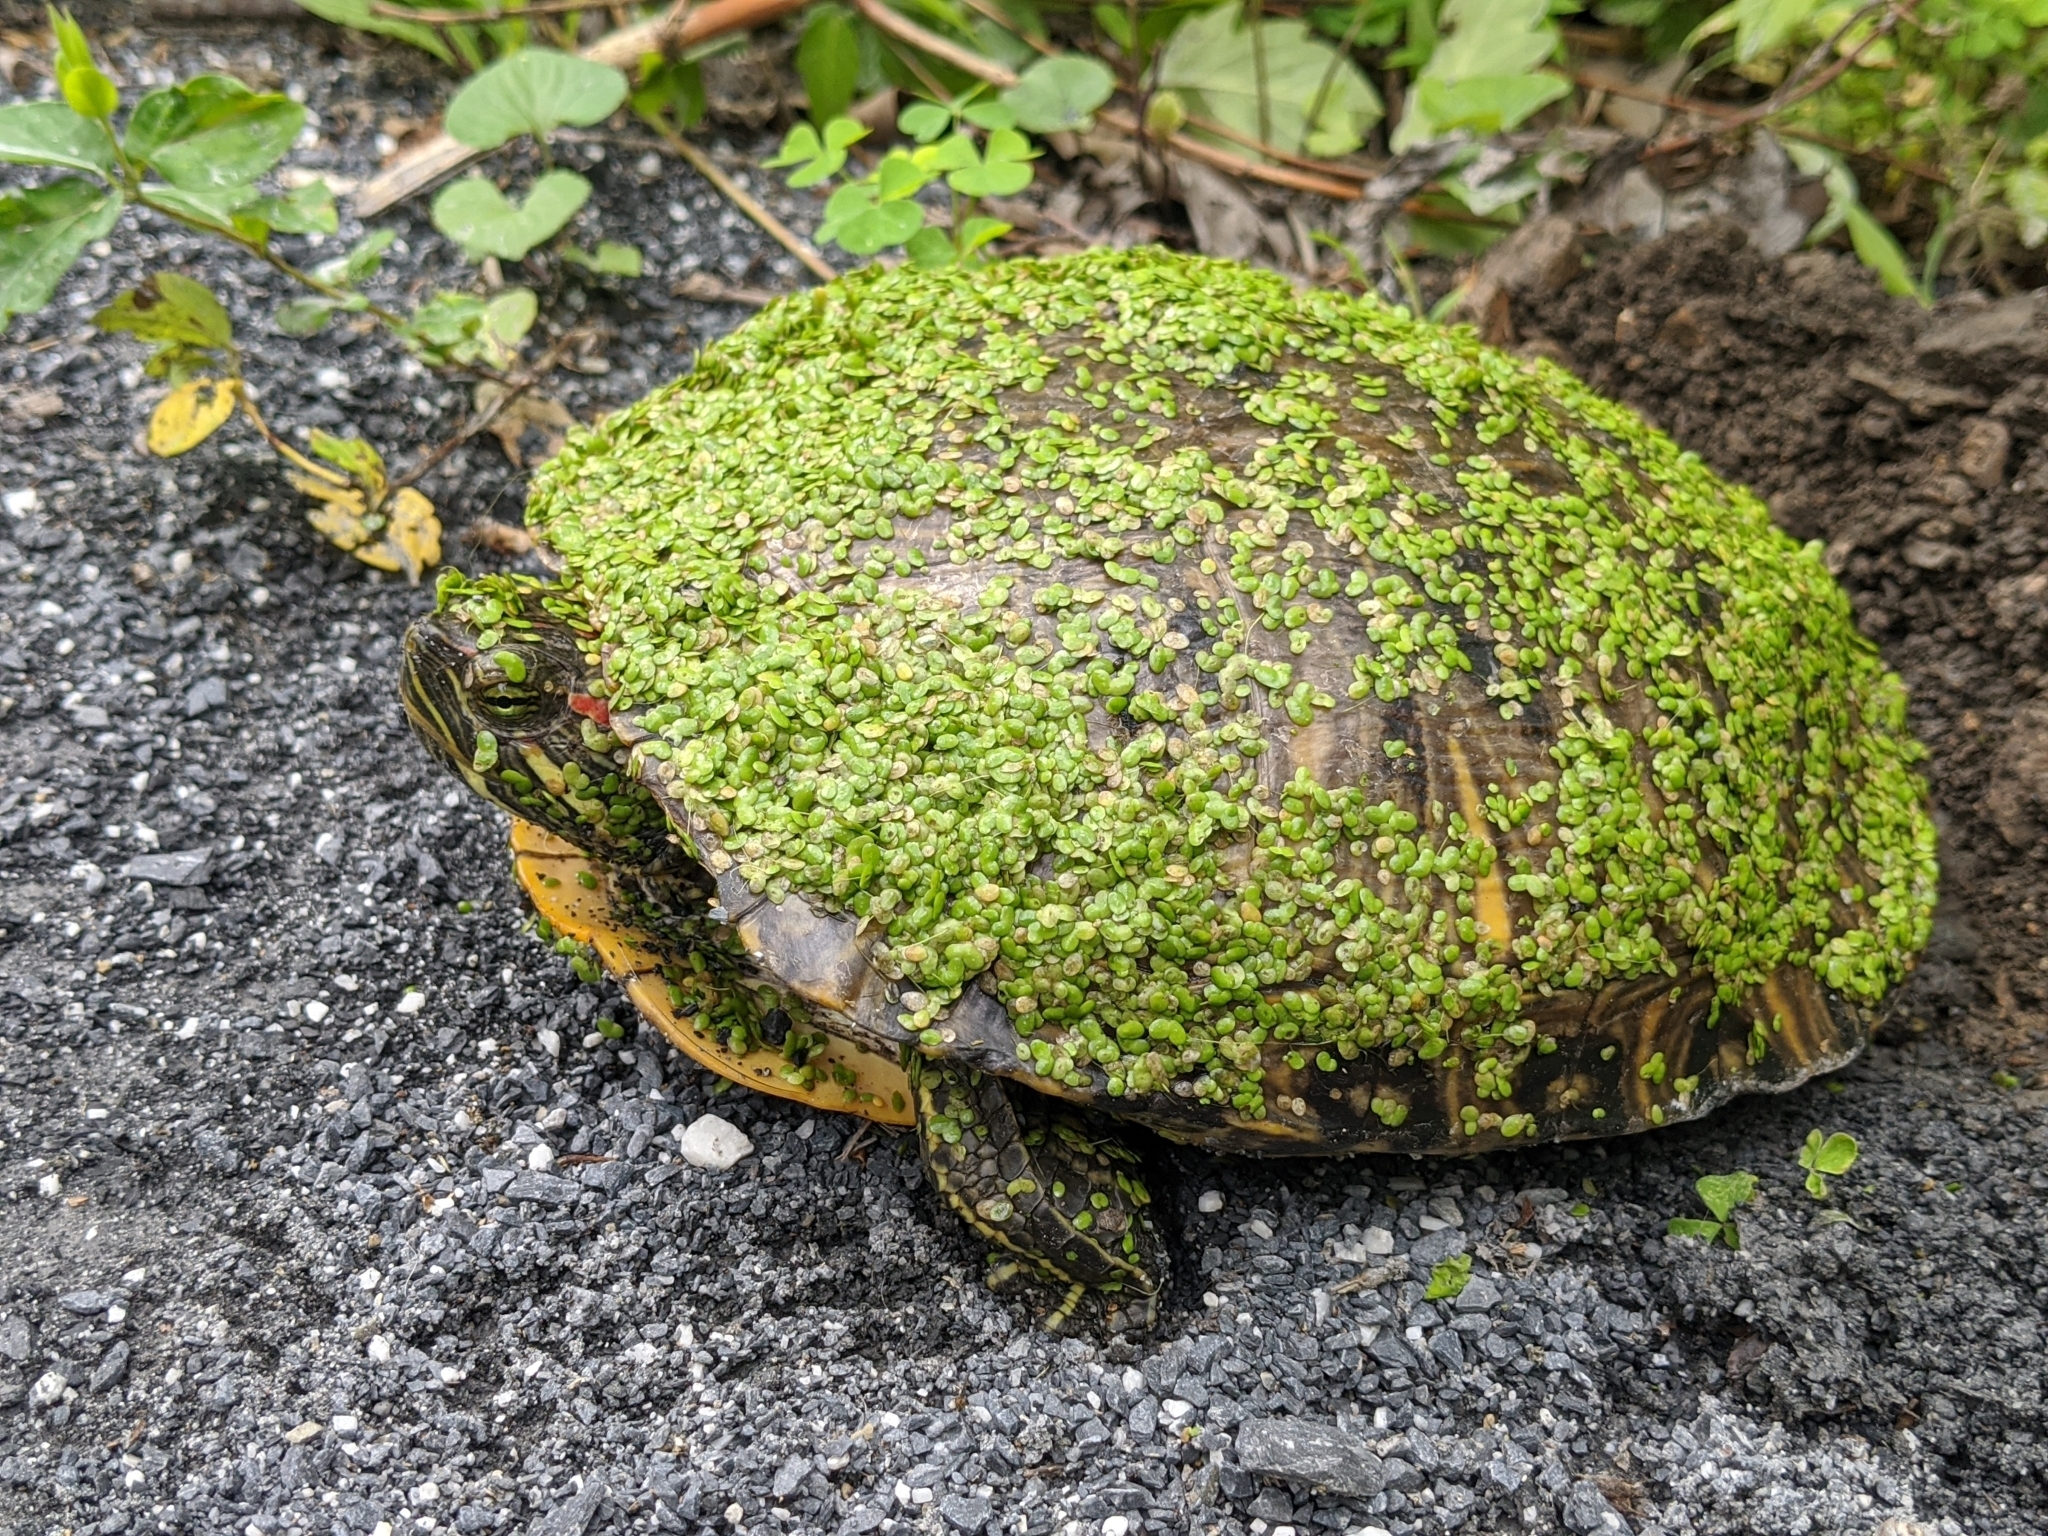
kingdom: Animalia
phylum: Chordata
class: Testudines
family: Emydidae
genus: Trachemys
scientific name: Trachemys scripta
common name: Slider
